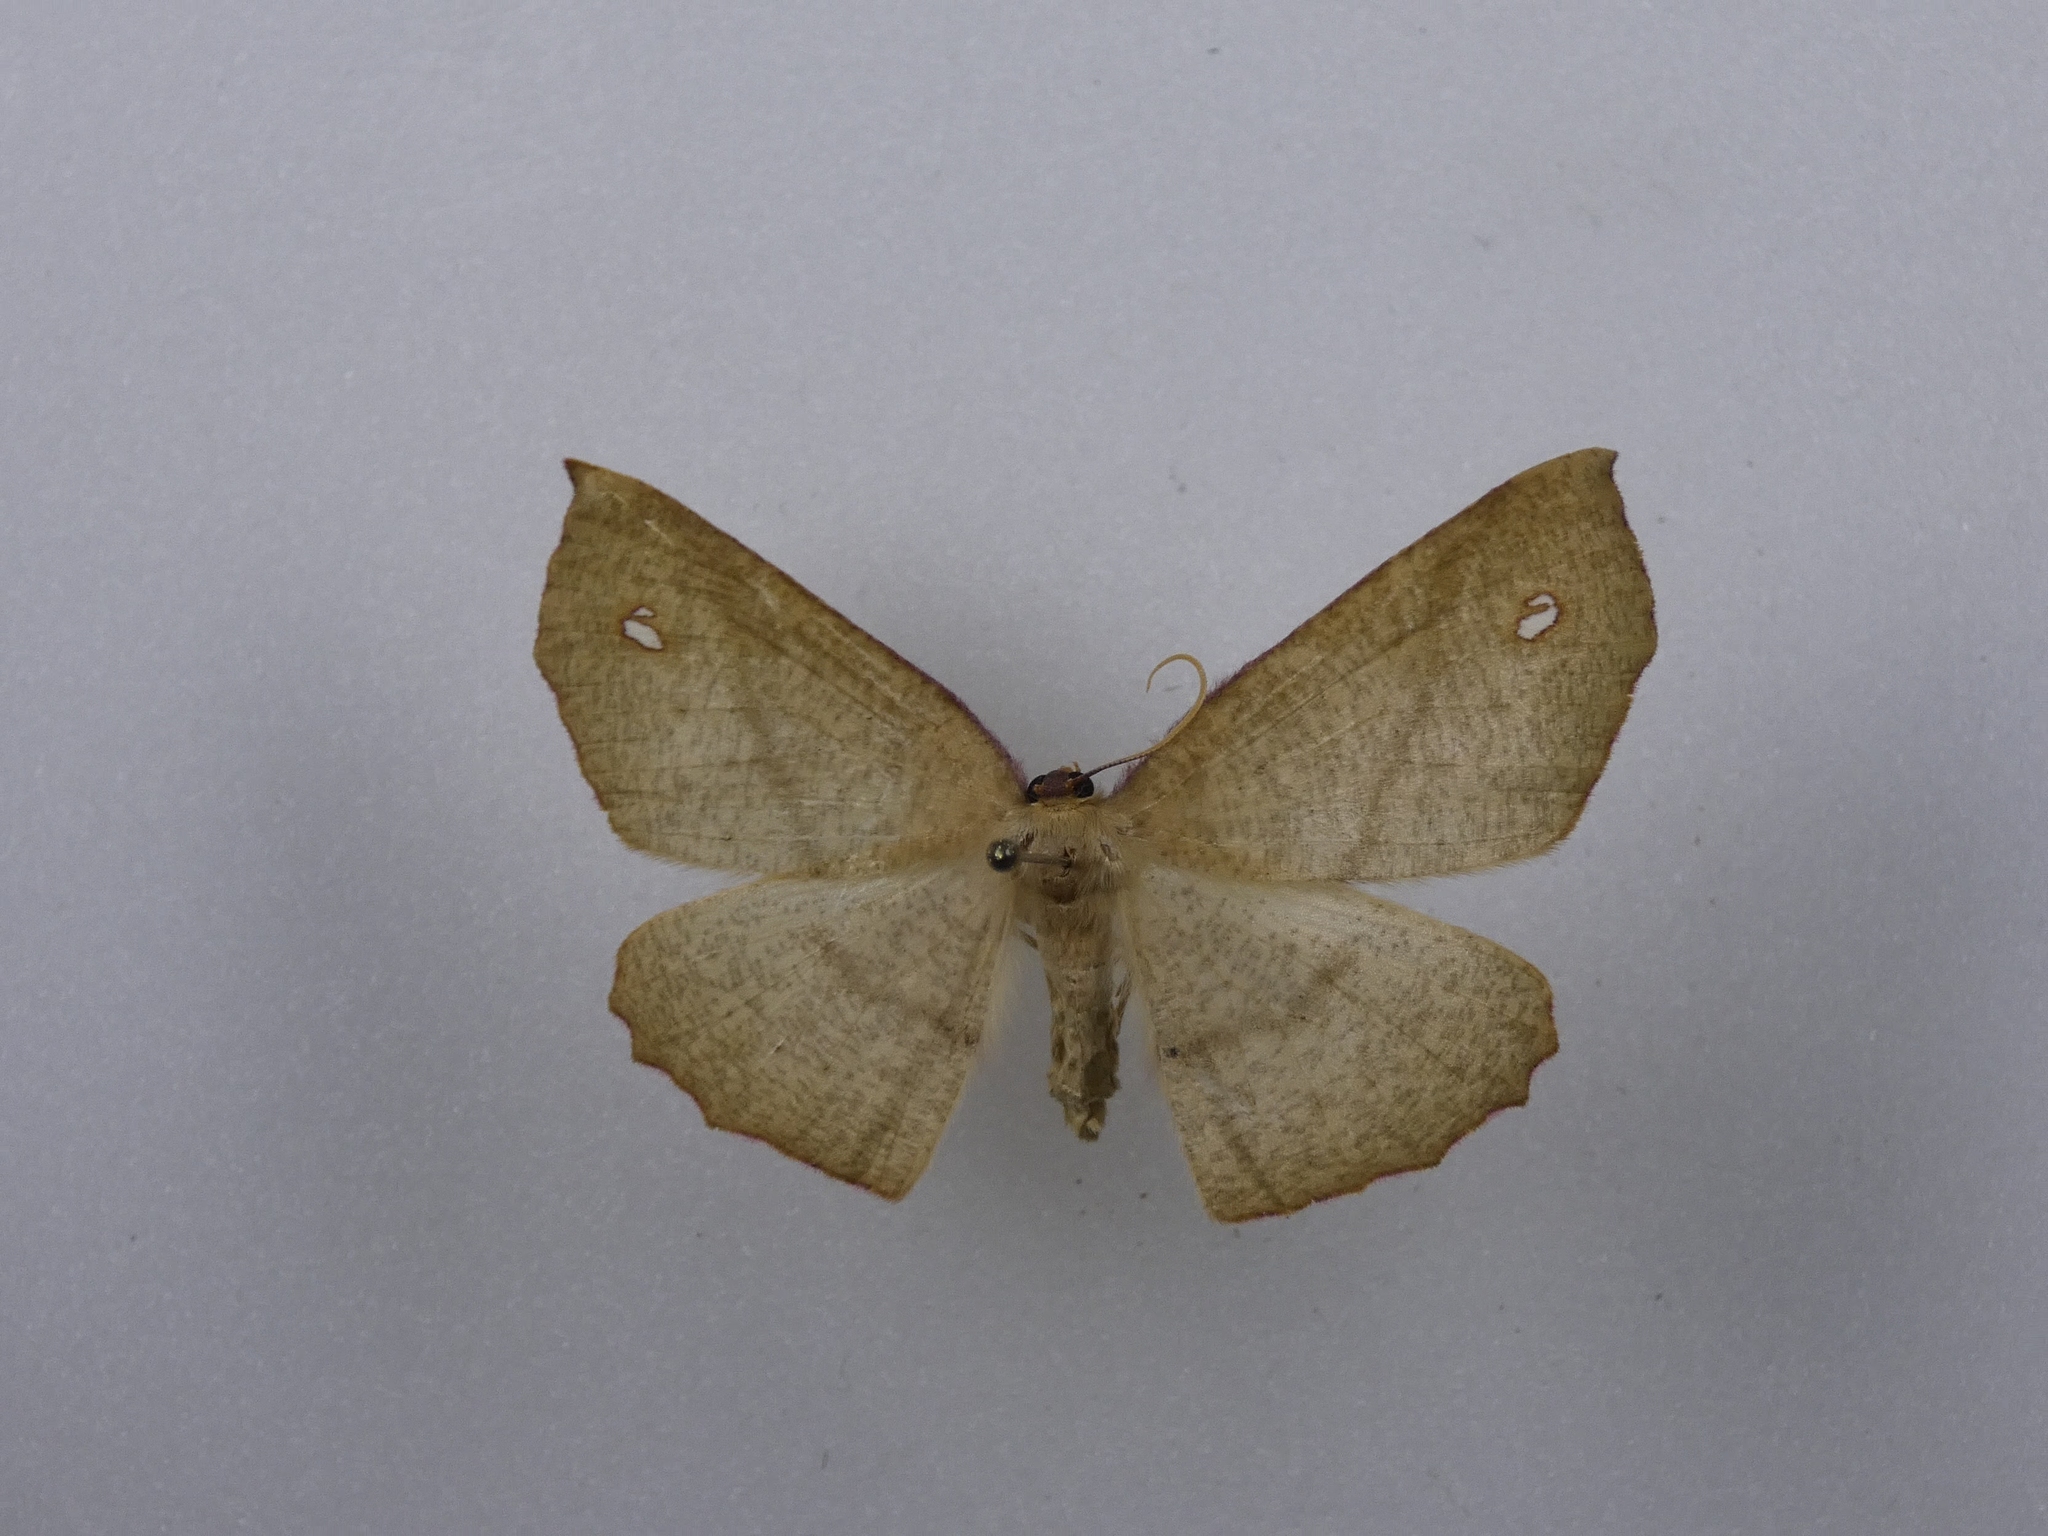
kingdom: Animalia
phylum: Arthropoda
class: Insecta
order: Lepidoptera
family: Geometridae
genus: Xyridacma
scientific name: Xyridacma alectoraria
